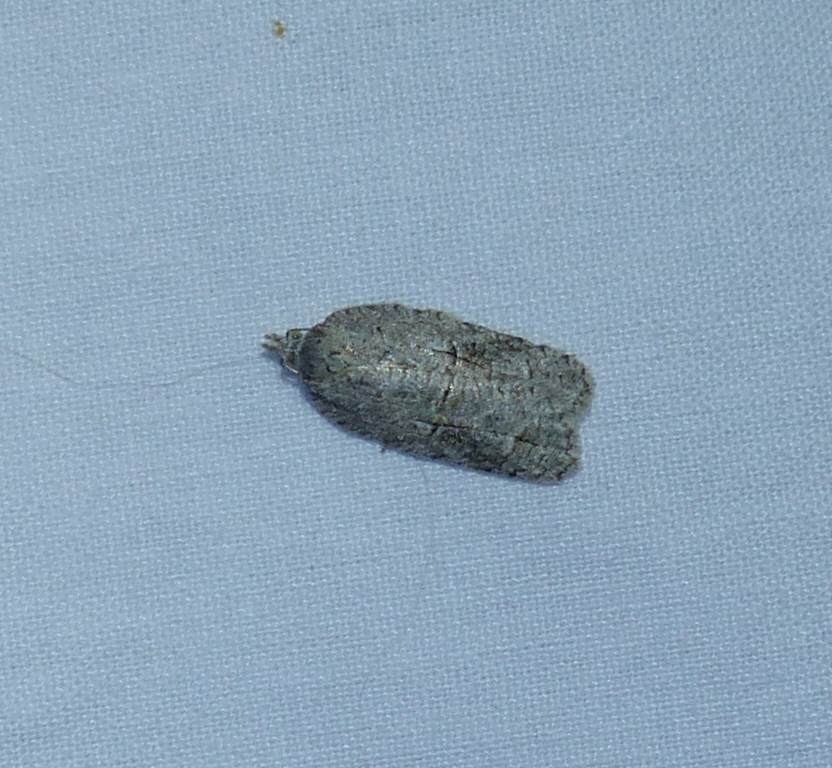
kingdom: Animalia
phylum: Arthropoda
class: Insecta
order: Lepidoptera
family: Tortricidae
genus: Acleris
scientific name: Acleris nigrolinea
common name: Black-lined acleris
